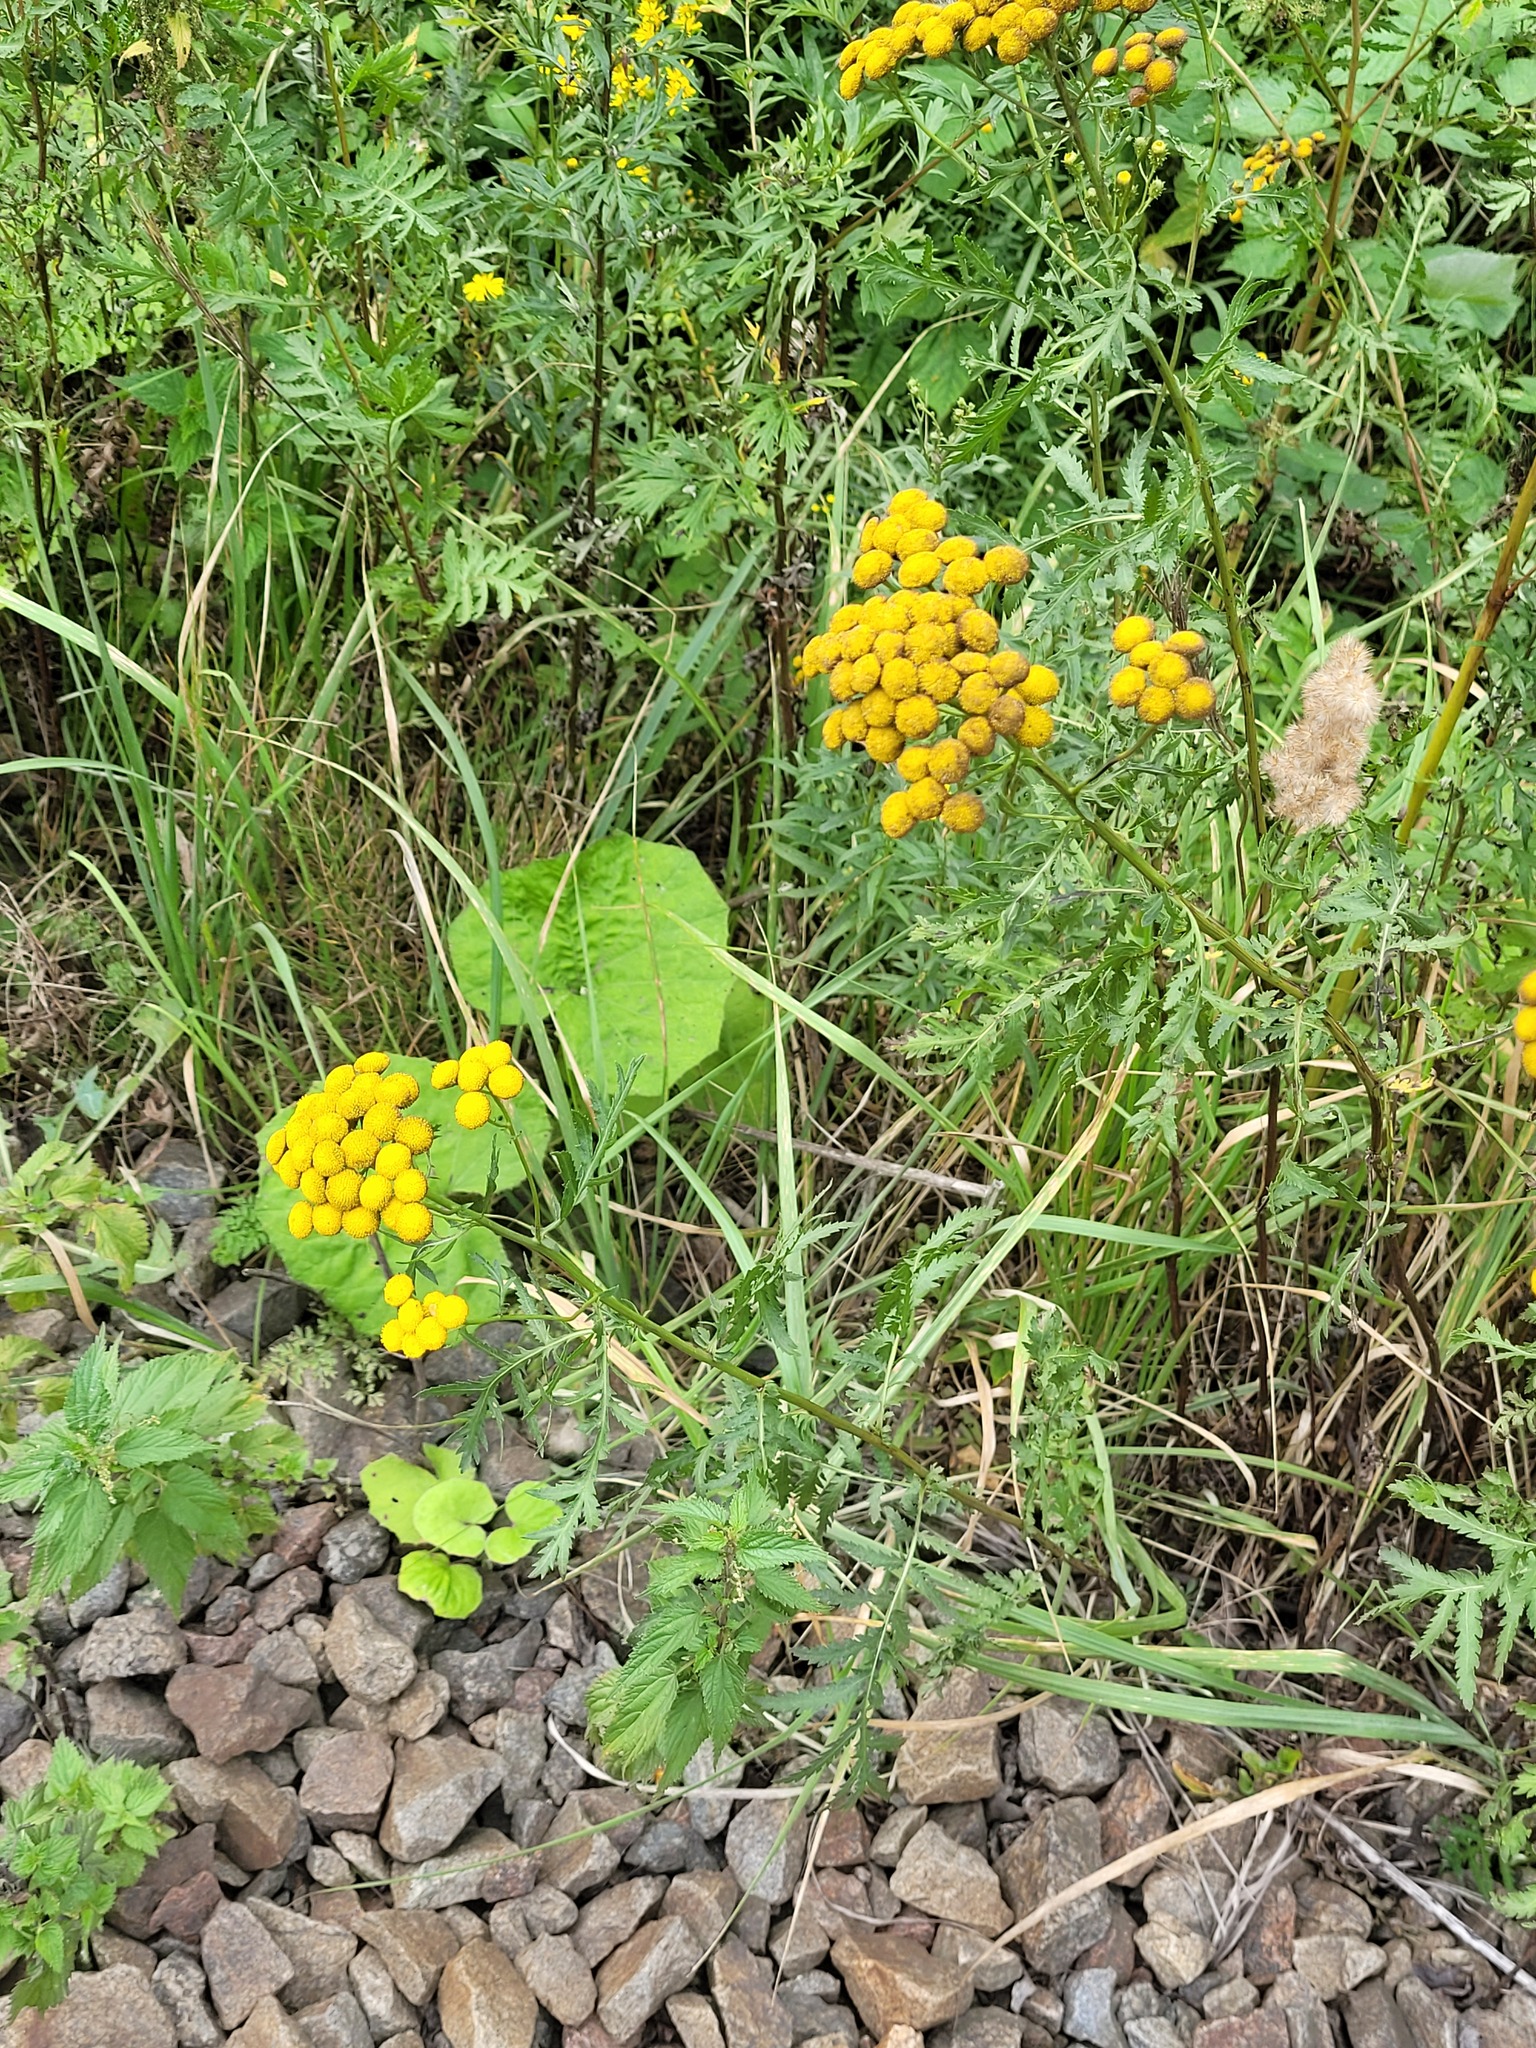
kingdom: Plantae
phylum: Tracheophyta
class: Magnoliopsida
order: Asterales
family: Asteraceae
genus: Tanacetum
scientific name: Tanacetum vulgare
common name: Common tansy
